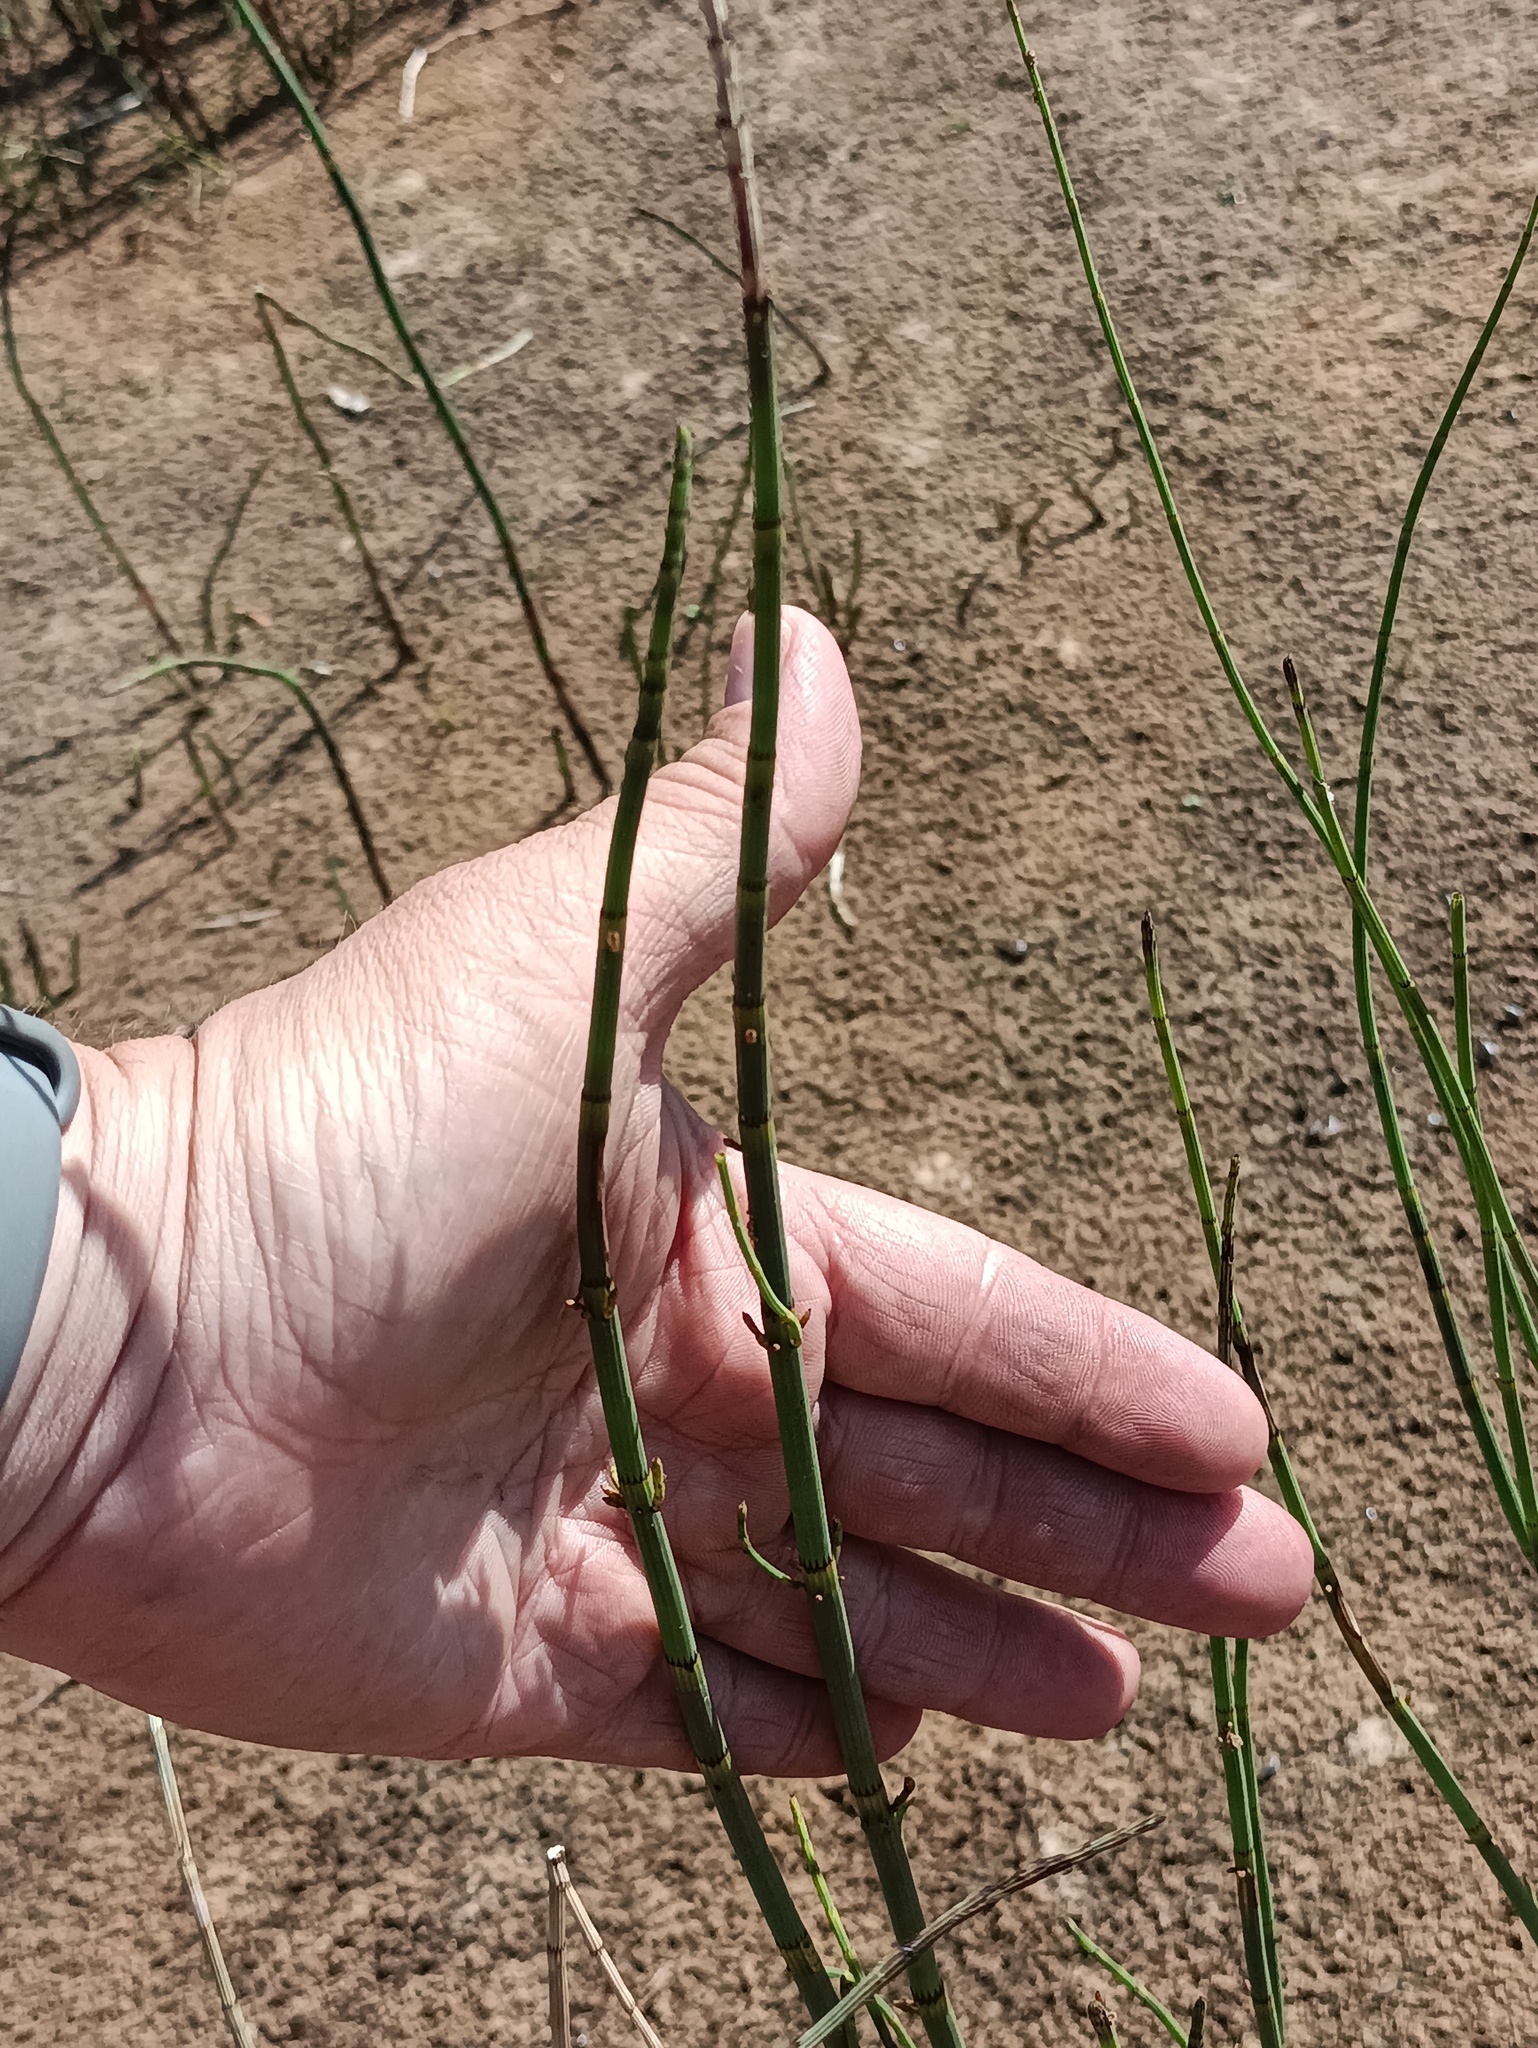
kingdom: Plantae
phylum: Tracheophyta
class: Polypodiopsida
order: Equisetales
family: Equisetaceae
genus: Equisetum
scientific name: Equisetum fluviatile
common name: Water horsetail
